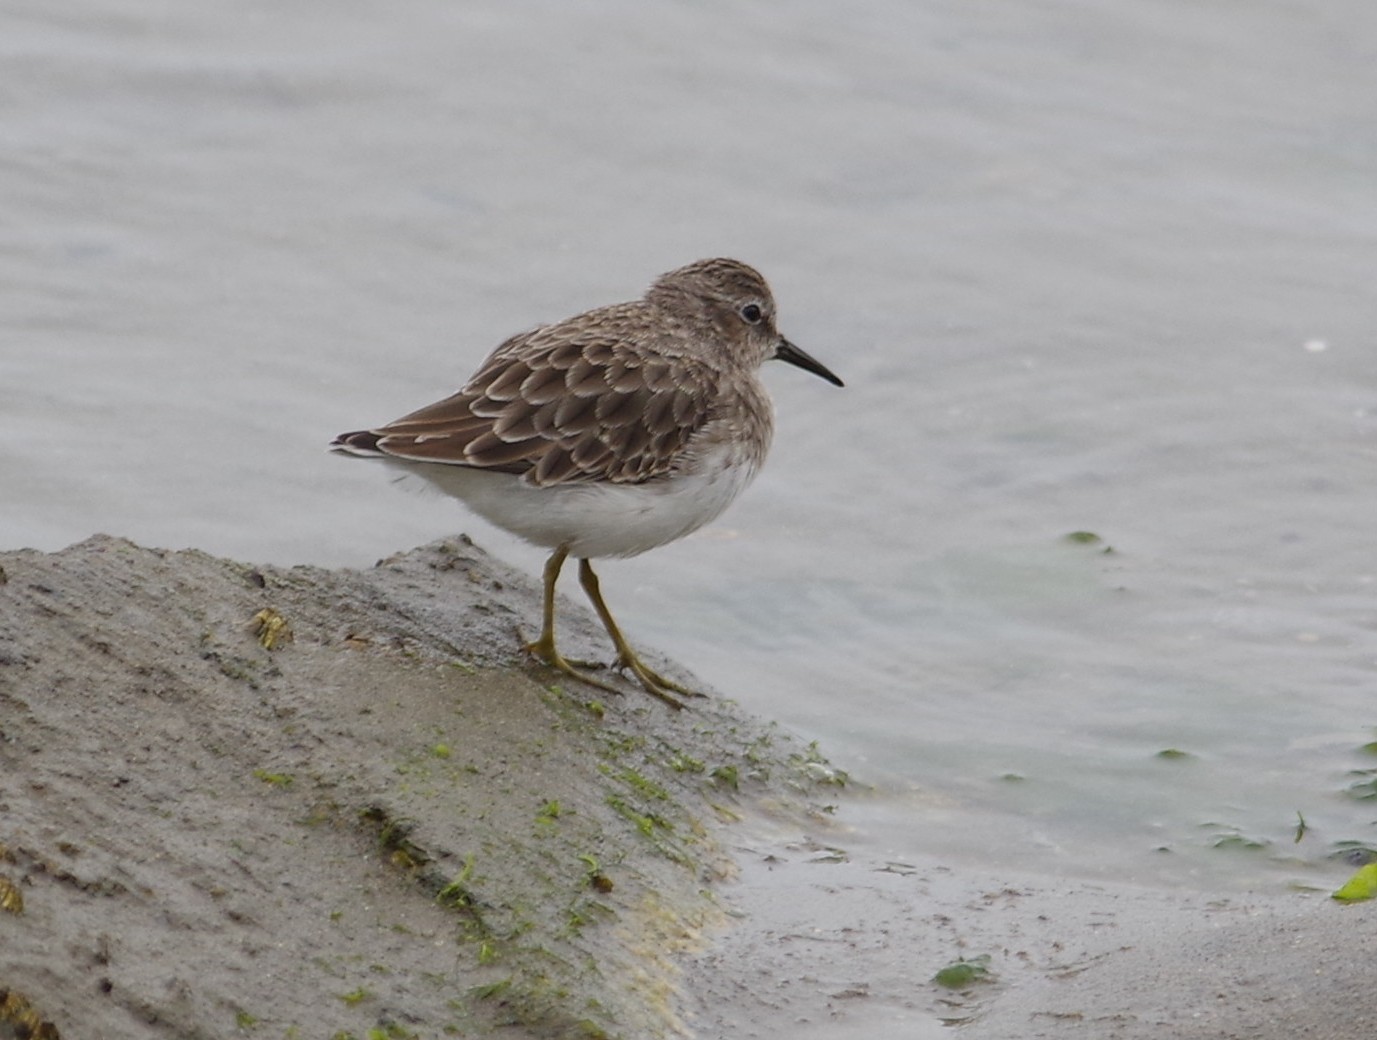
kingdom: Animalia
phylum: Chordata
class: Aves
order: Charadriiformes
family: Scolopacidae
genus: Calidris
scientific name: Calidris minutilla
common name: Least sandpiper
